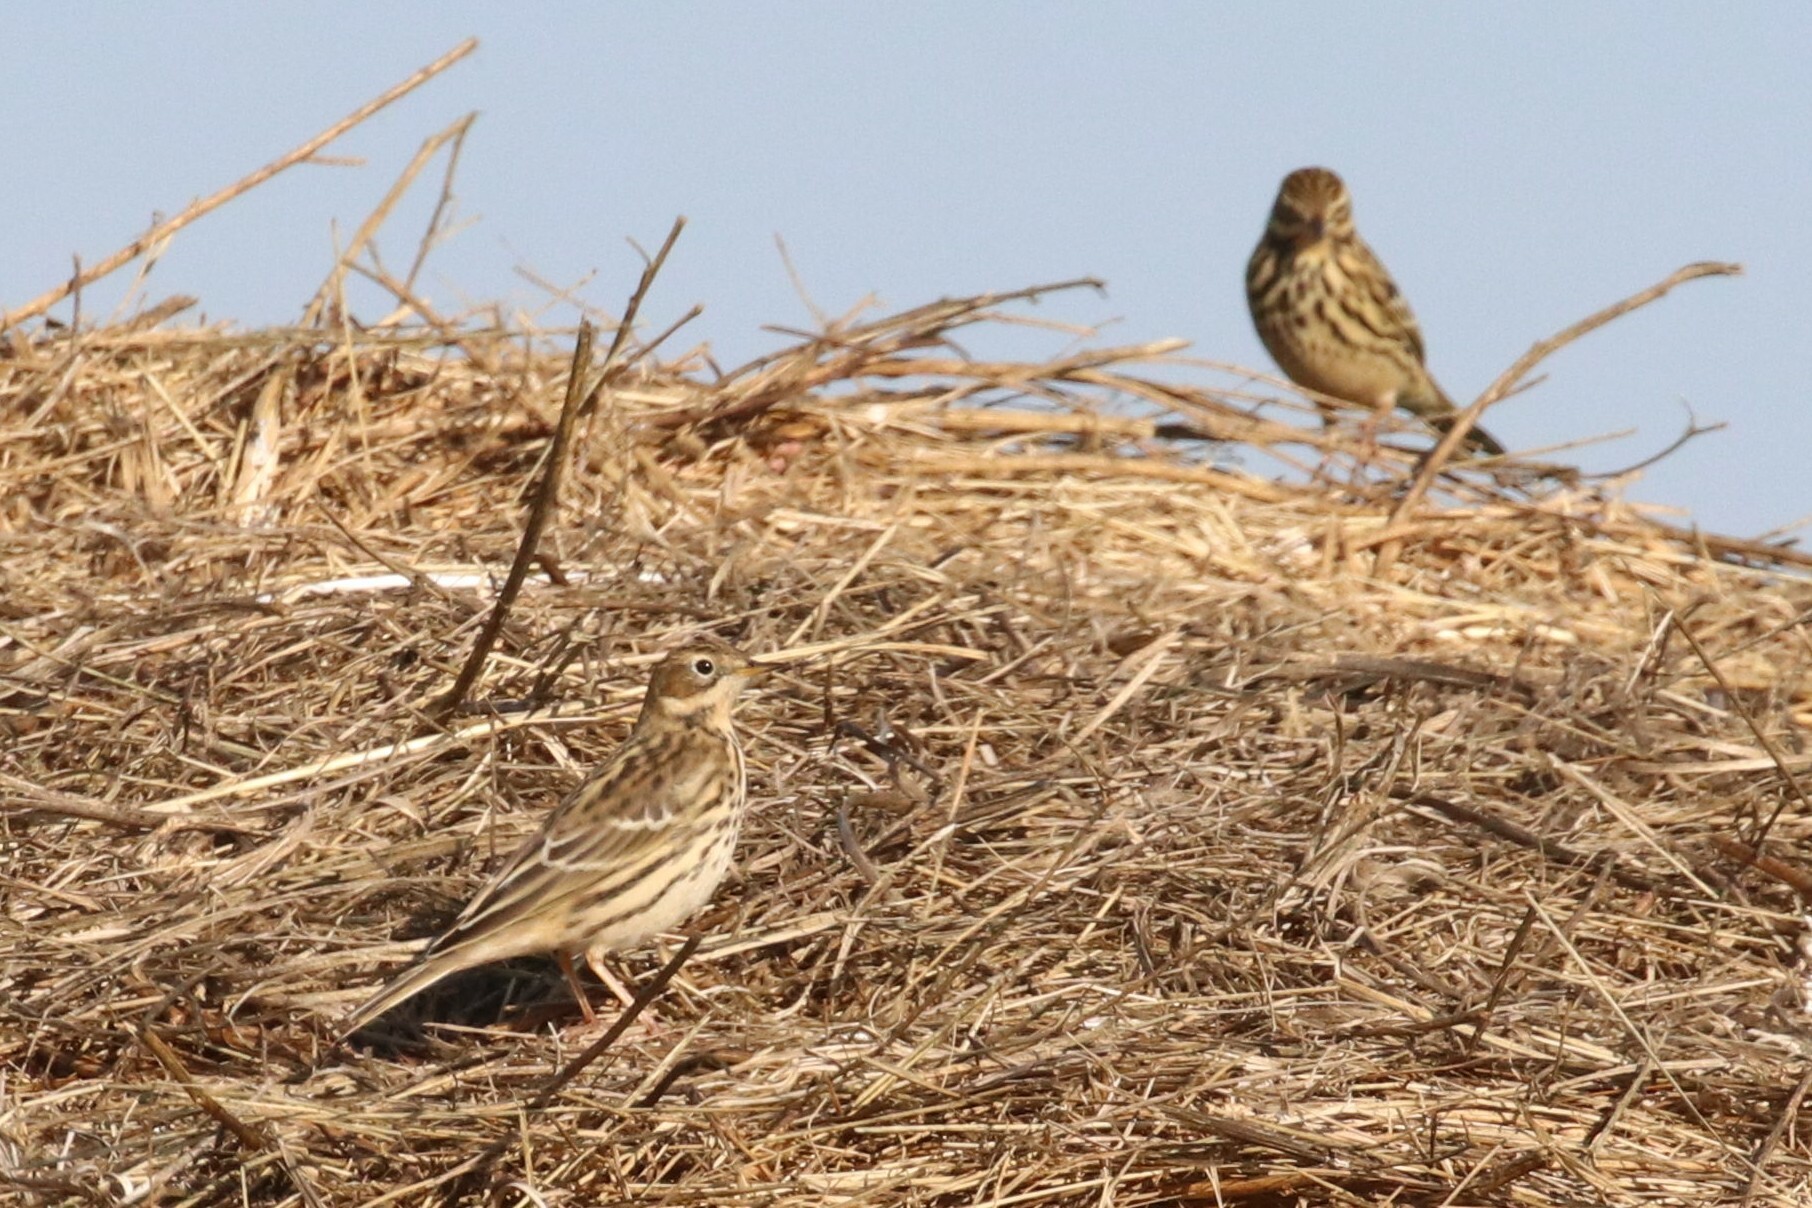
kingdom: Animalia
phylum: Chordata
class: Aves
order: Passeriformes
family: Motacillidae
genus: Anthus
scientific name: Anthus cervinus
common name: Red-throated pipit
